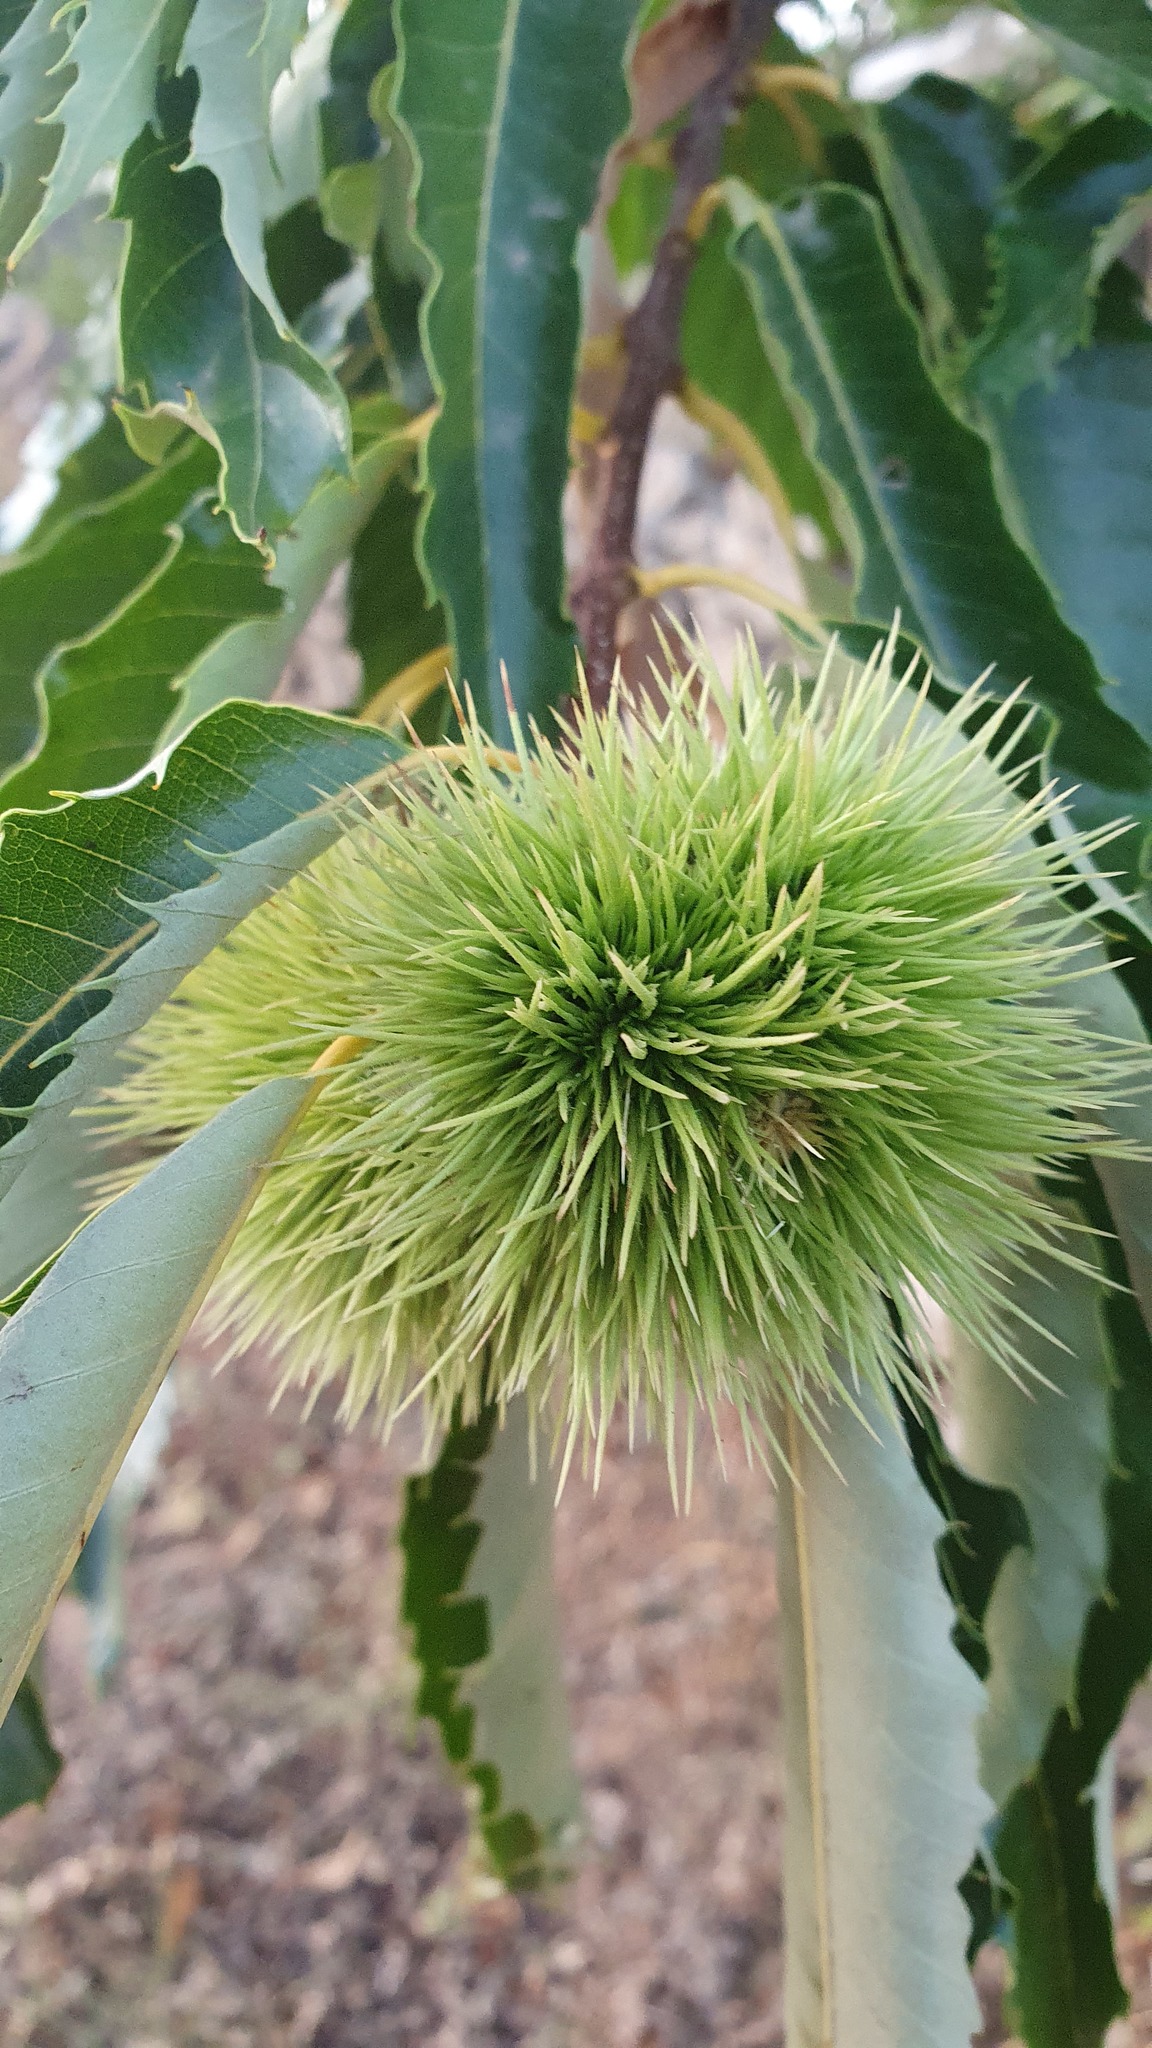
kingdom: Plantae
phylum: Tracheophyta
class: Magnoliopsida
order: Fagales
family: Fagaceae
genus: Castanea
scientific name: Castanea sativa
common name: Sweet chestnut
